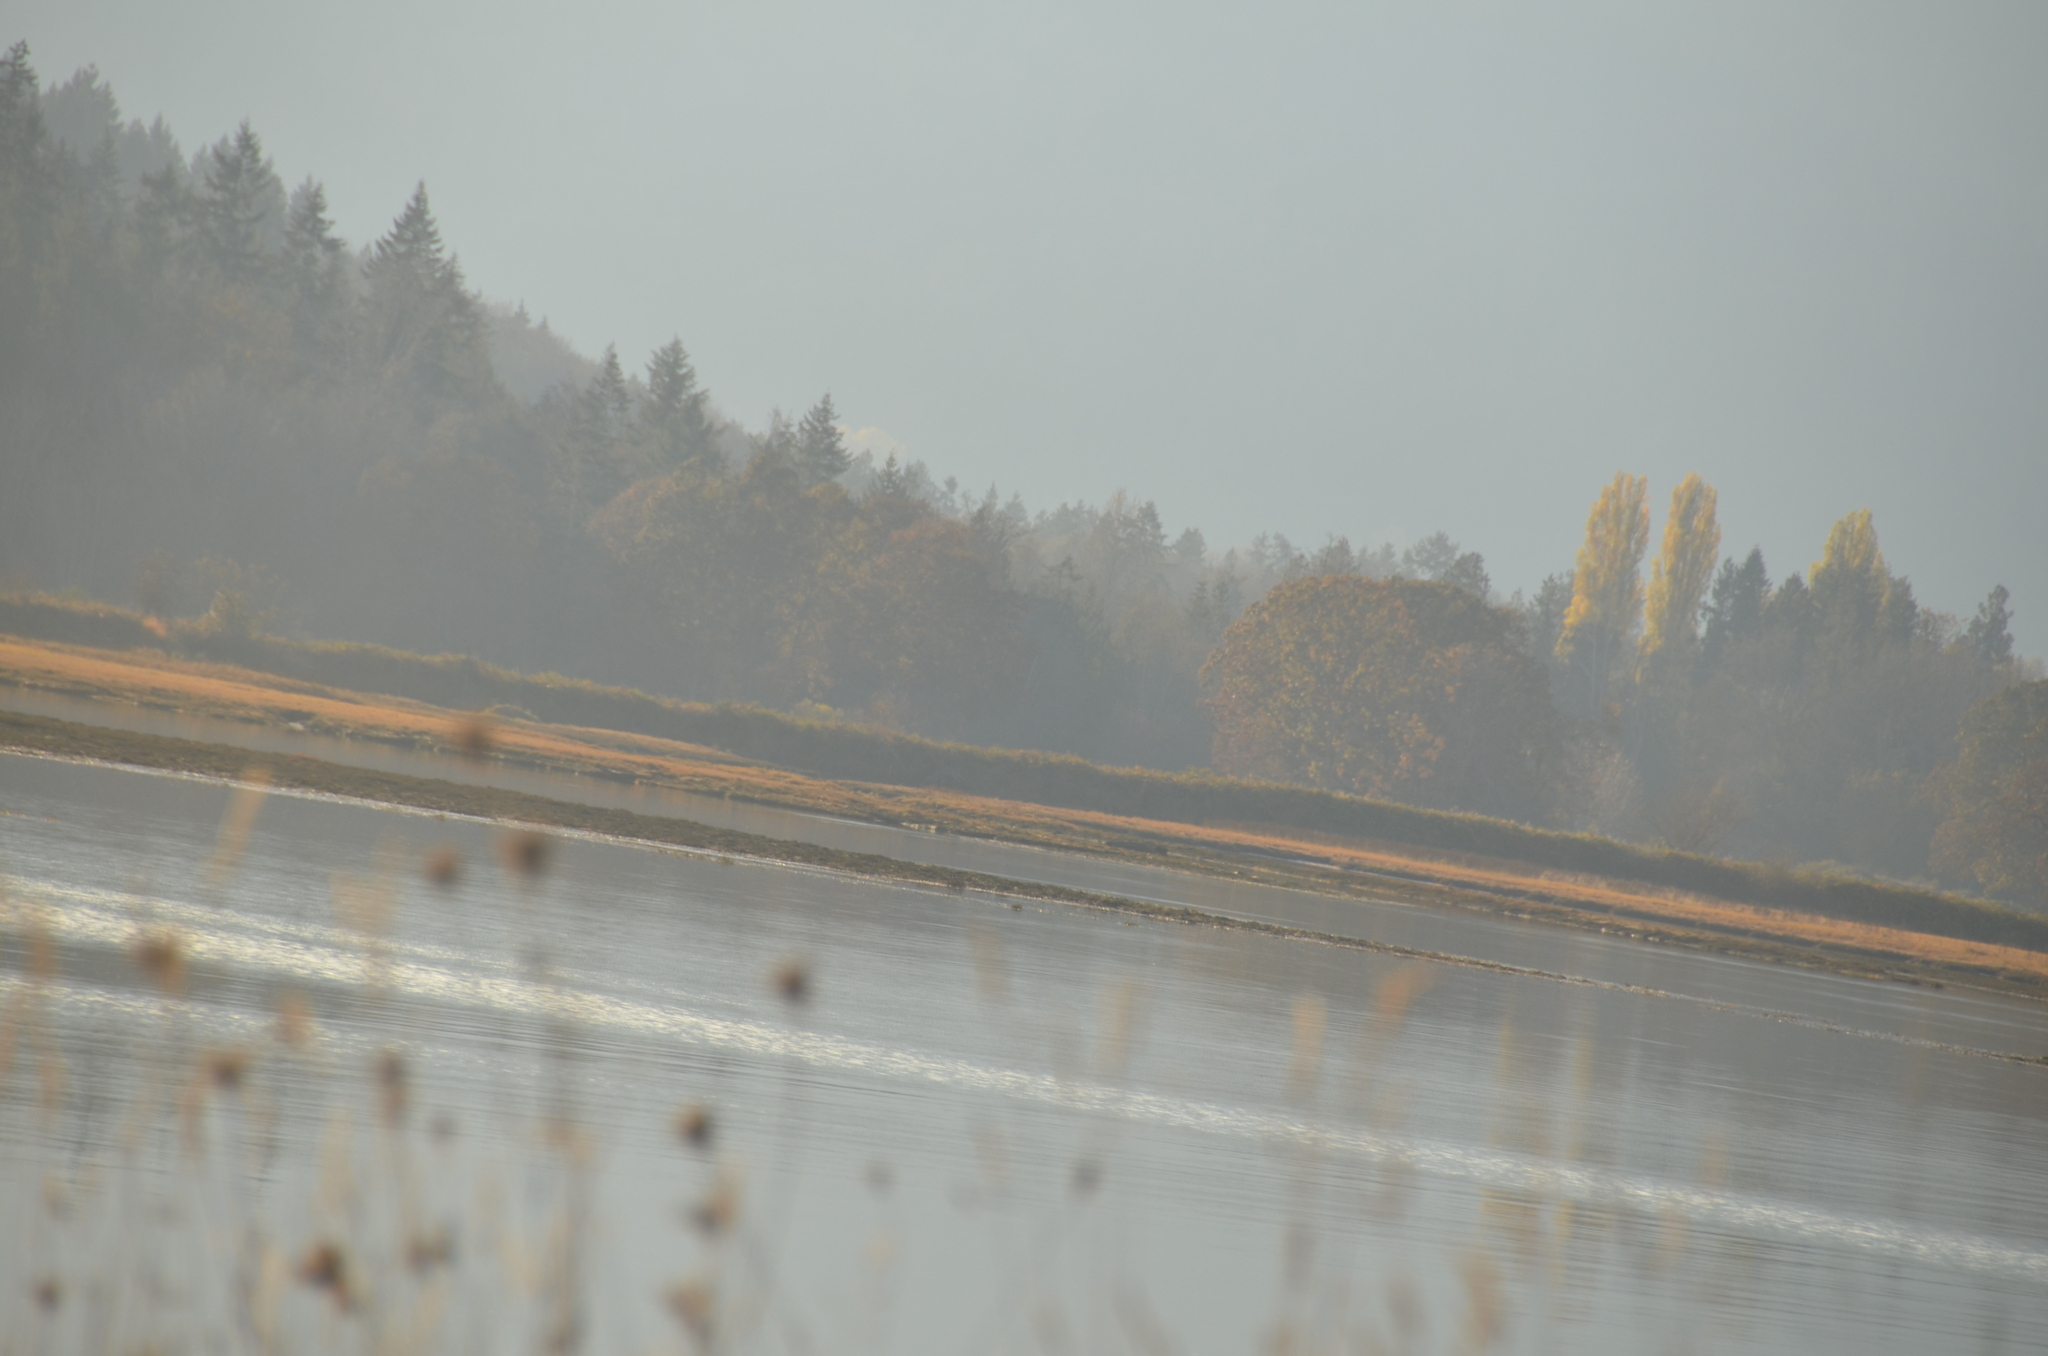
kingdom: Animalia
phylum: Chordata
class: Aves
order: Accipitriformes
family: Accipitridae
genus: Circus
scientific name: Circus cyaneus
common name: Hen harrier
